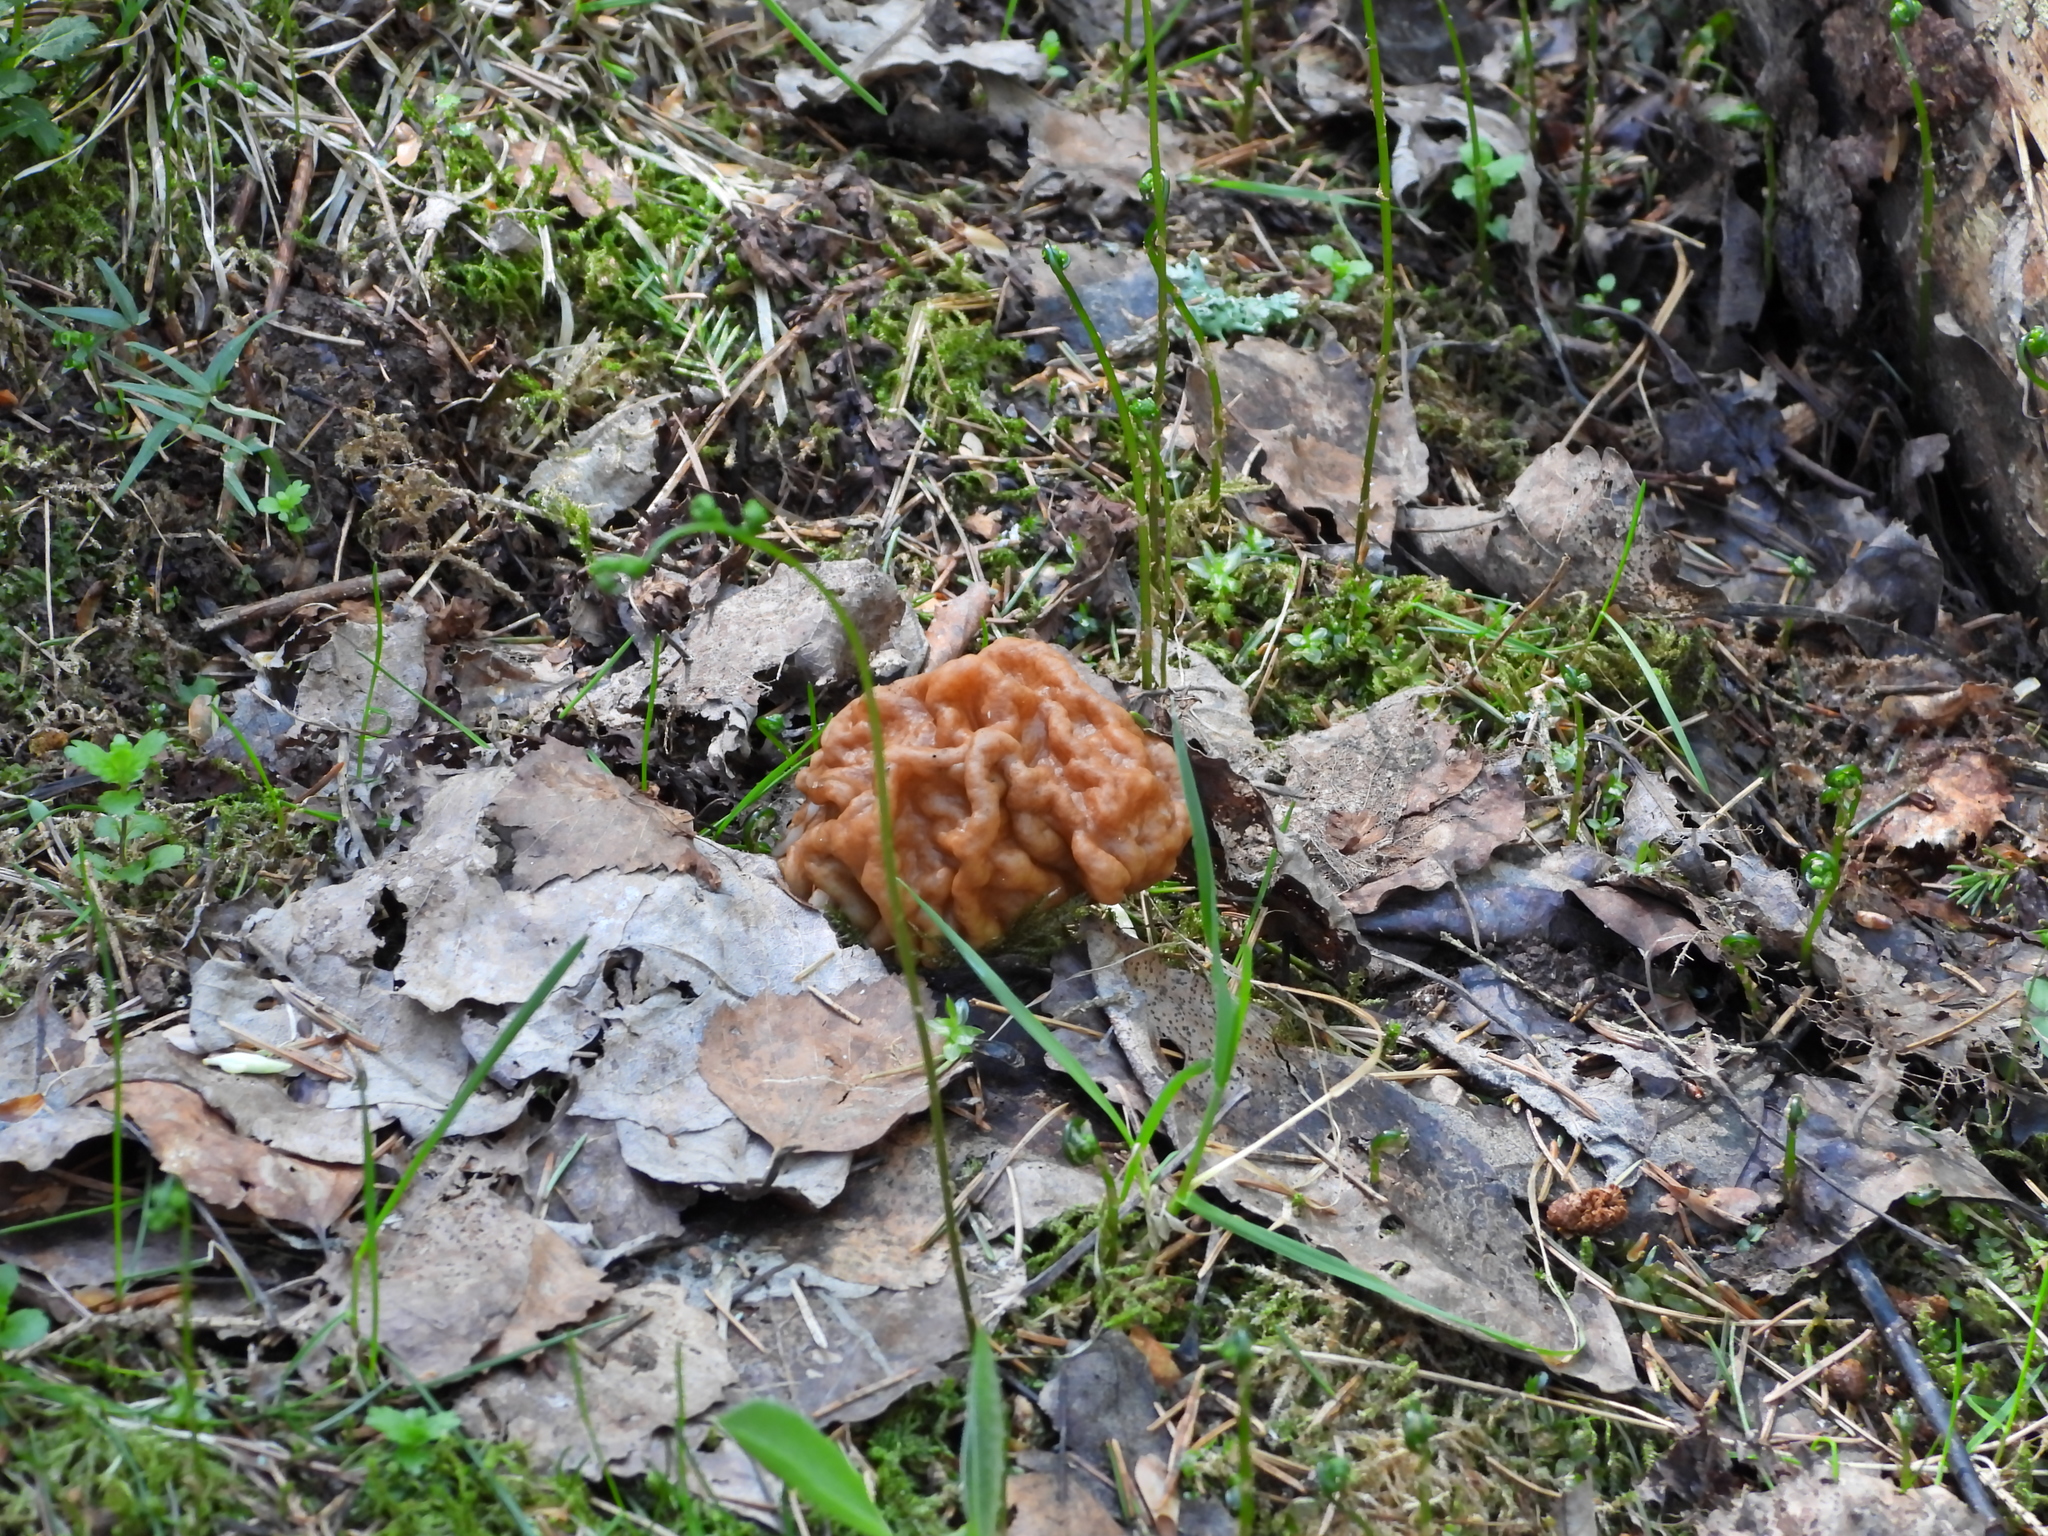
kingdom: Fungi
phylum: Ascomycota
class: Pezizomycetes
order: Pezizales
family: Discinaceae
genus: Gyromitra
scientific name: Gyromitra gigas
